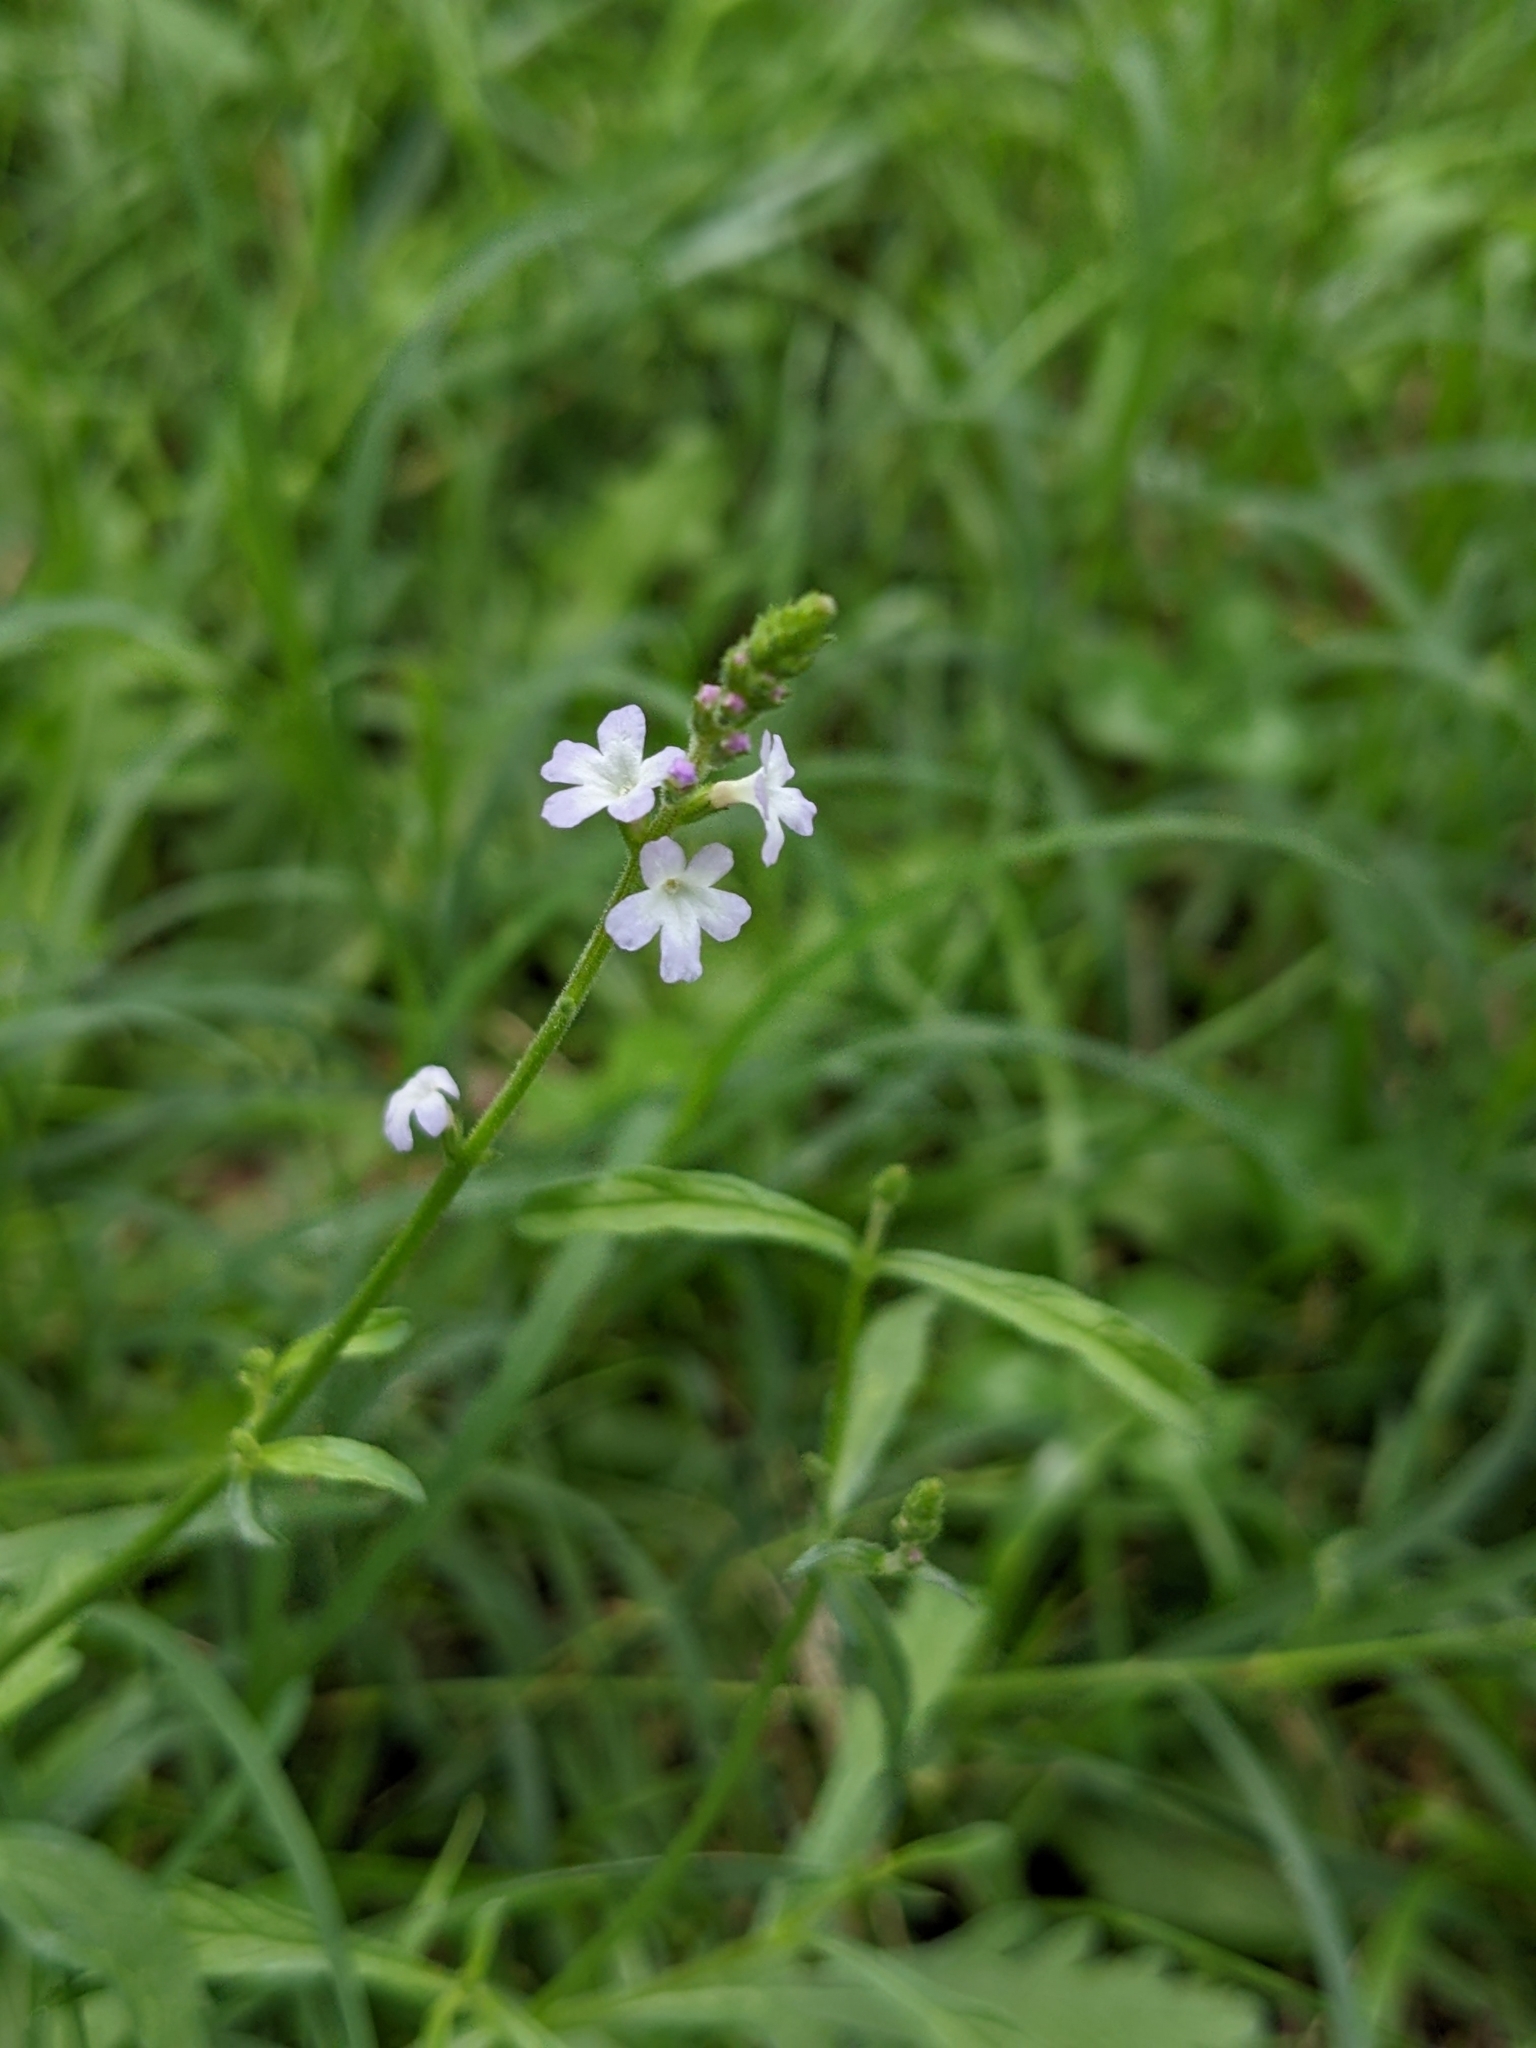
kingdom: Plantae
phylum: Tracheophyta
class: Magnoliopsida
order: Lamiales
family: Verbenaceae
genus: Verbena
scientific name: Verbena officinalis
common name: Vervain
